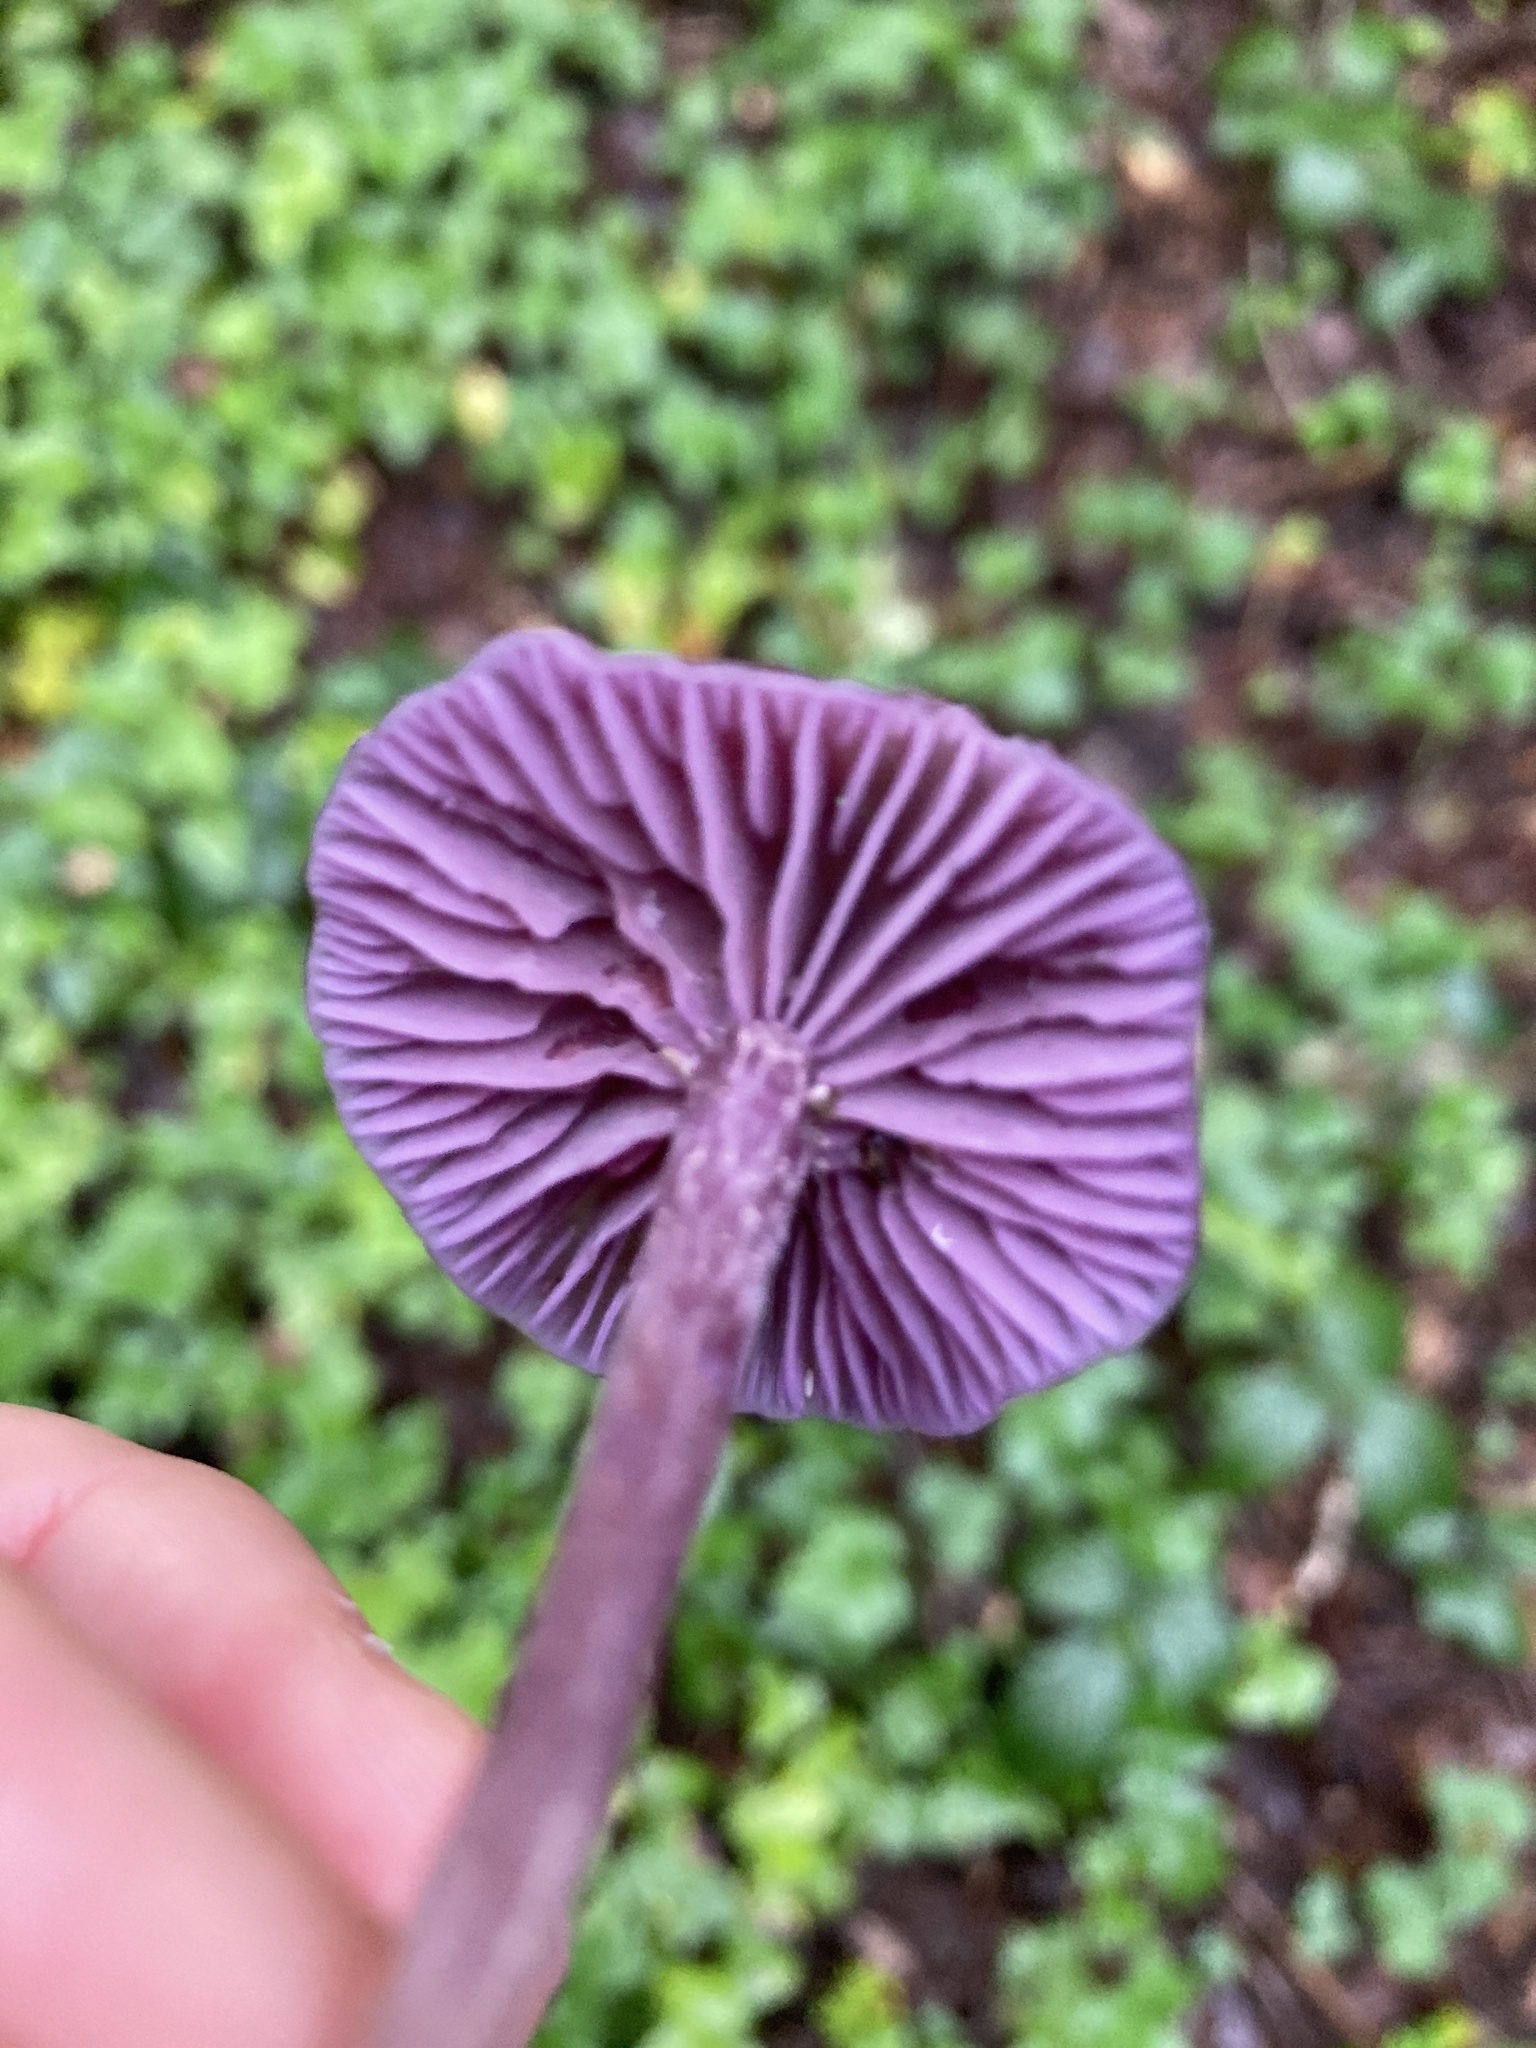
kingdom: Fungi
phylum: Basidiomycota
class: Agaricomycetes
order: Agaricales
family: Hydnangiaceae
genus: Laccaria
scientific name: Laccaria amethystina
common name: Amethyst deceiver
